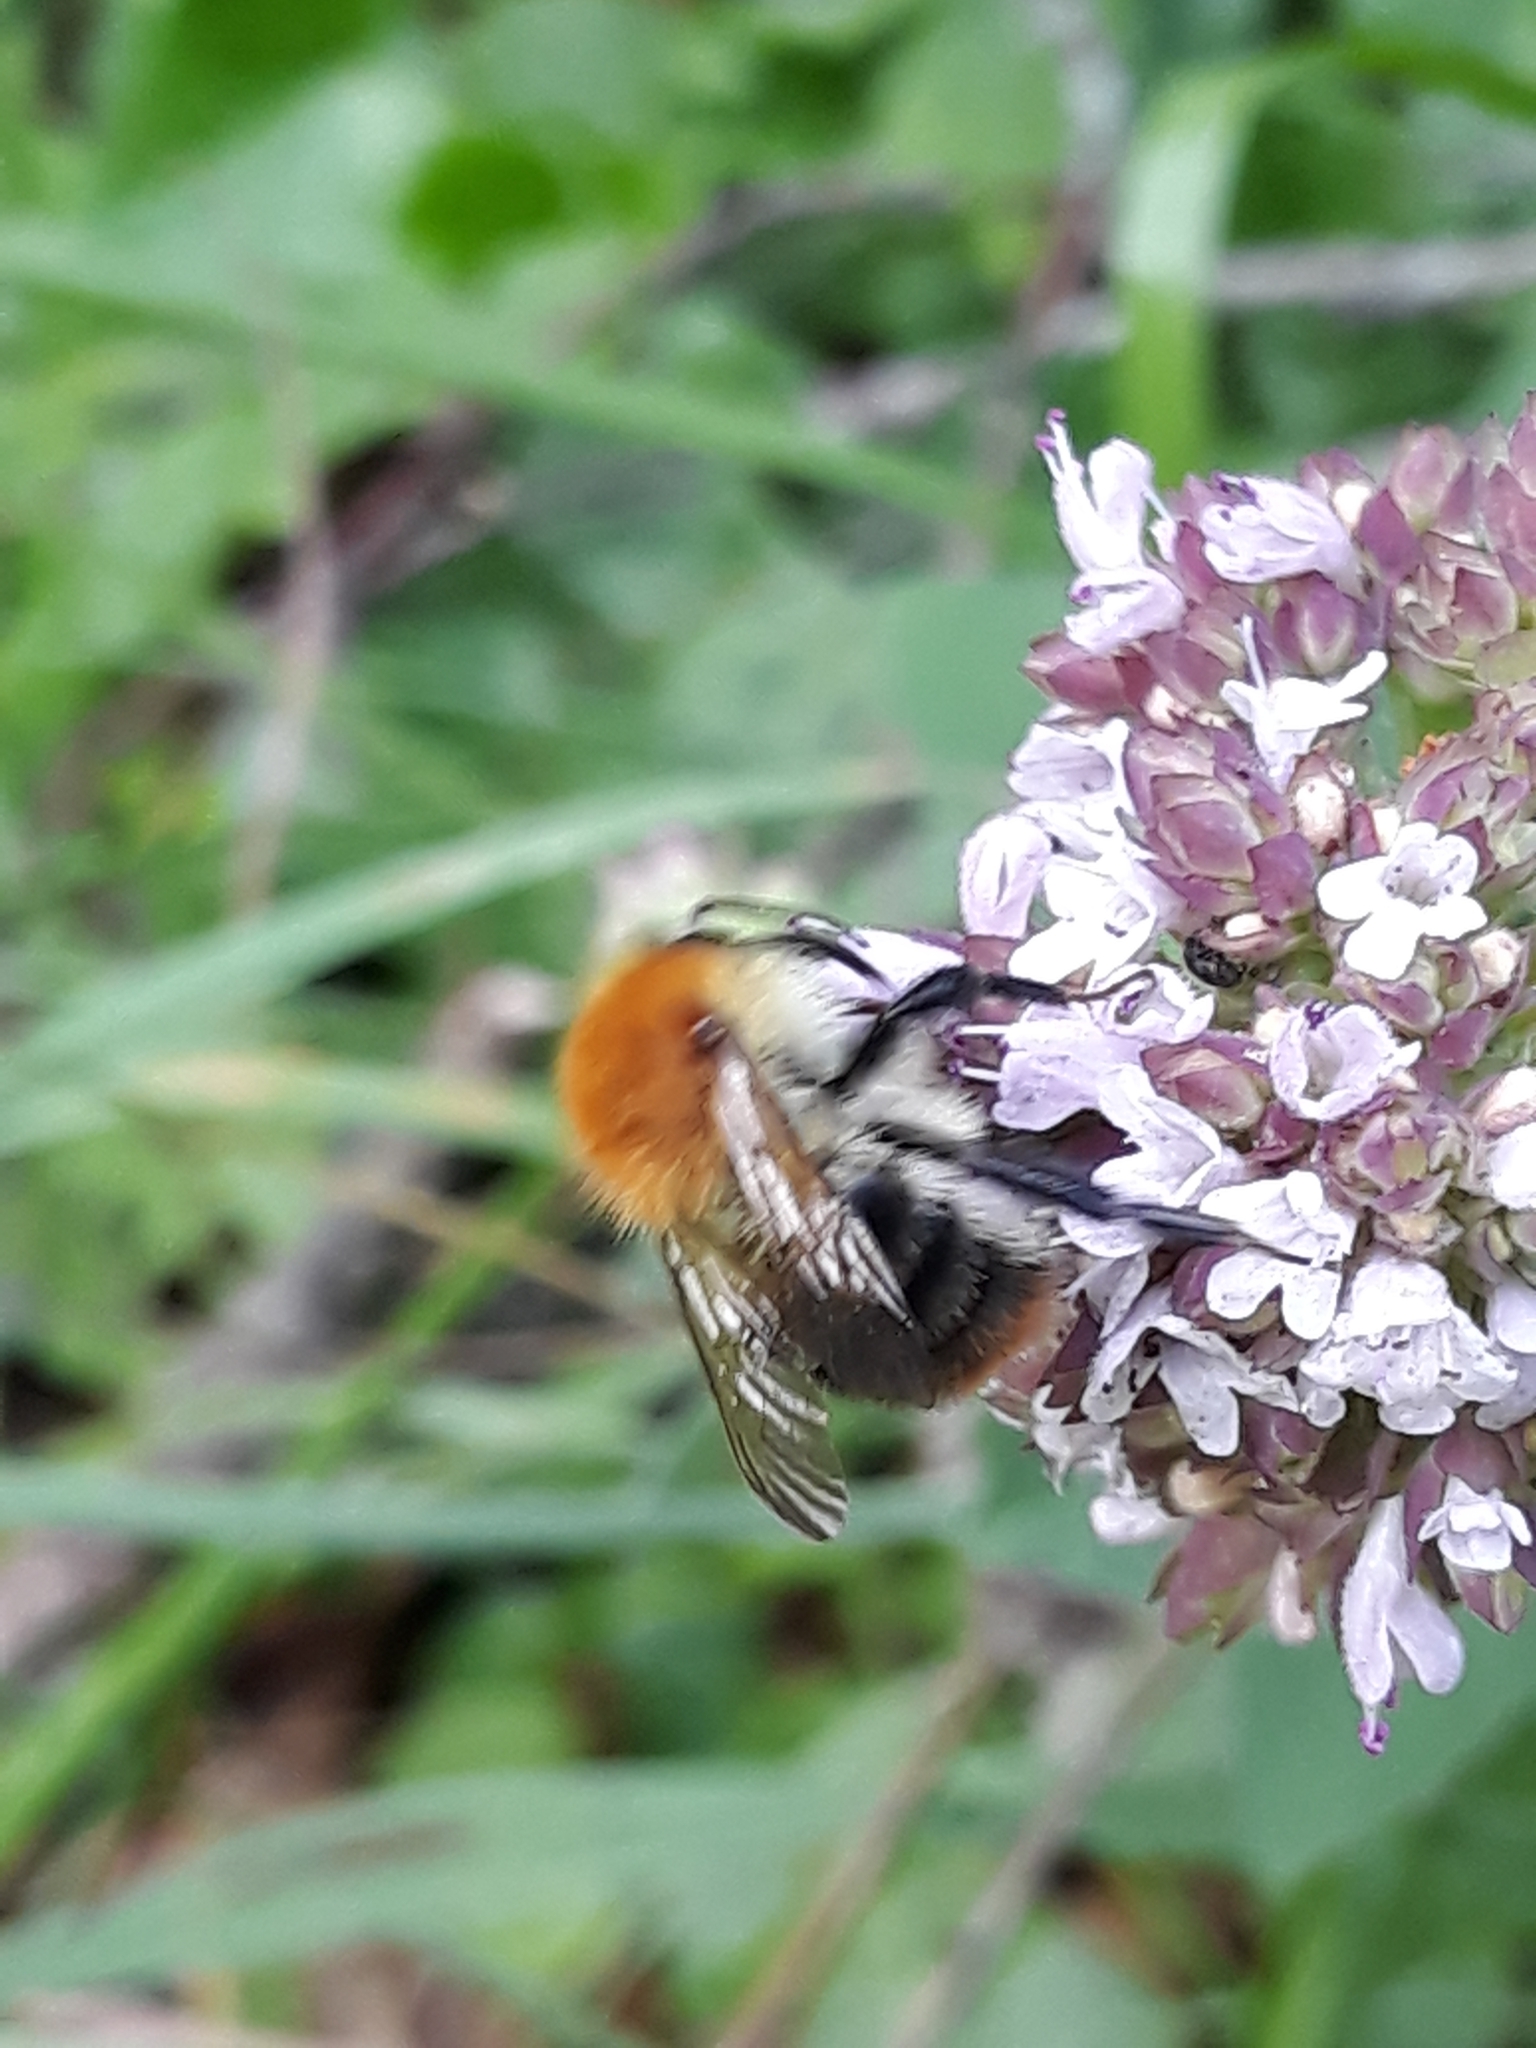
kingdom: Animalia
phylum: Arthropoda
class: Insecta
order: Hymenoptera
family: Apidae
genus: Bombus
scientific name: Bombus pascuorum
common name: Common carder bee
